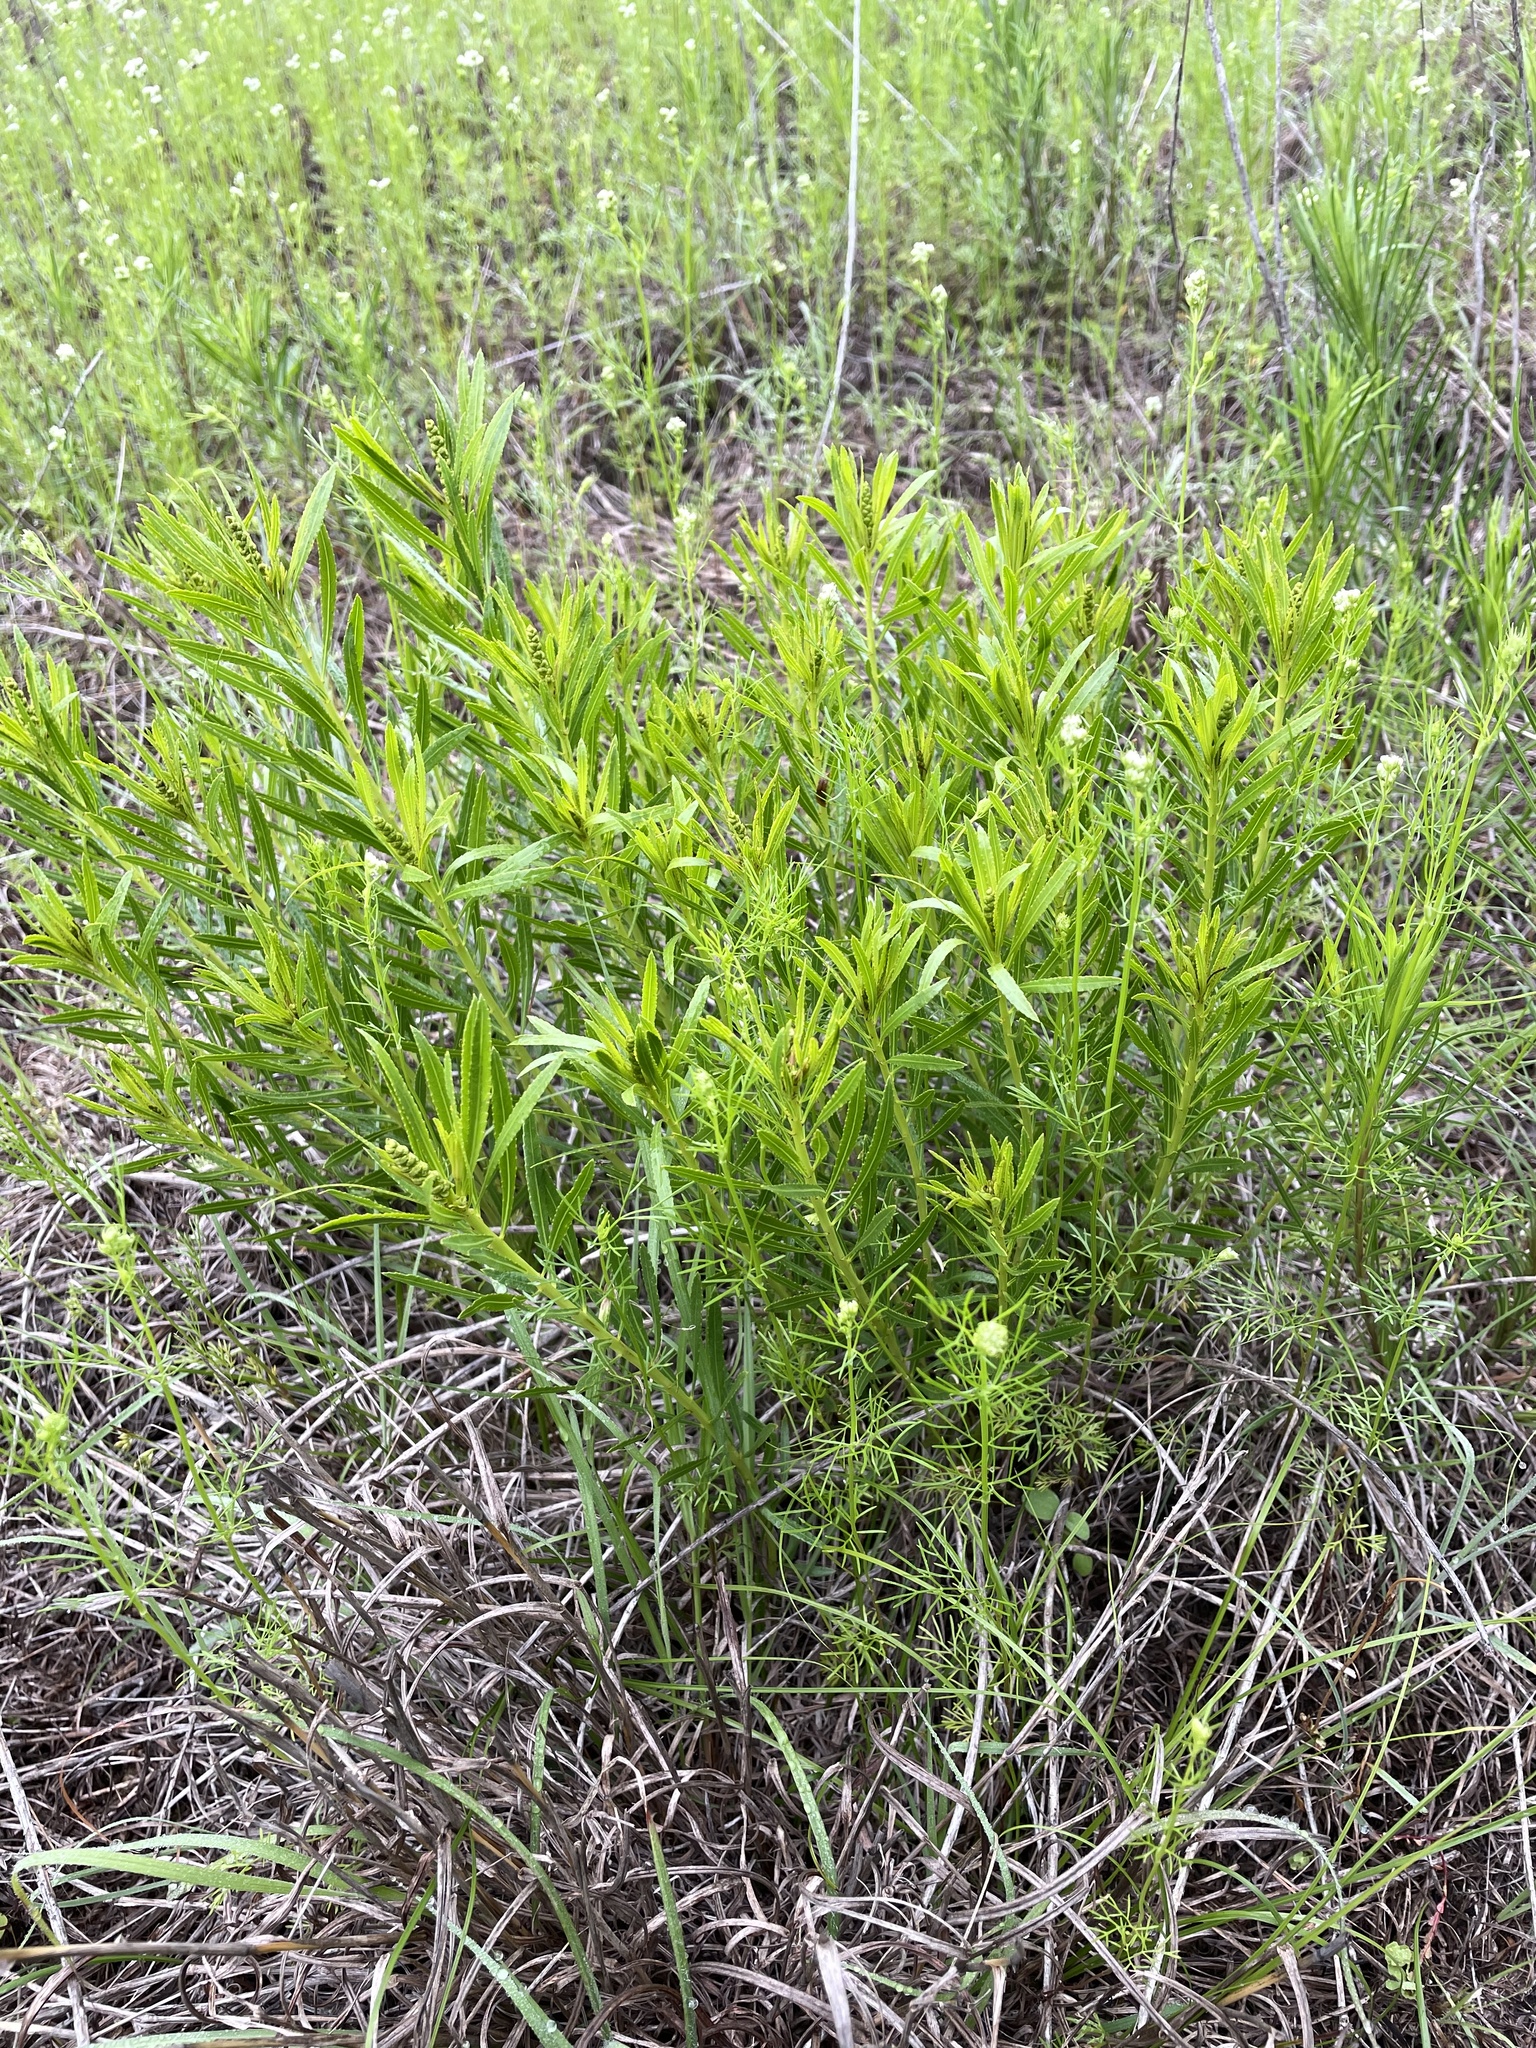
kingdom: Plantae
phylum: Tracheophyta
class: Magnoliopsida
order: Malpighiales
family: Euphorbiaceae
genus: Stillingia
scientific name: Stillingia texana
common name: Texas stillingia
